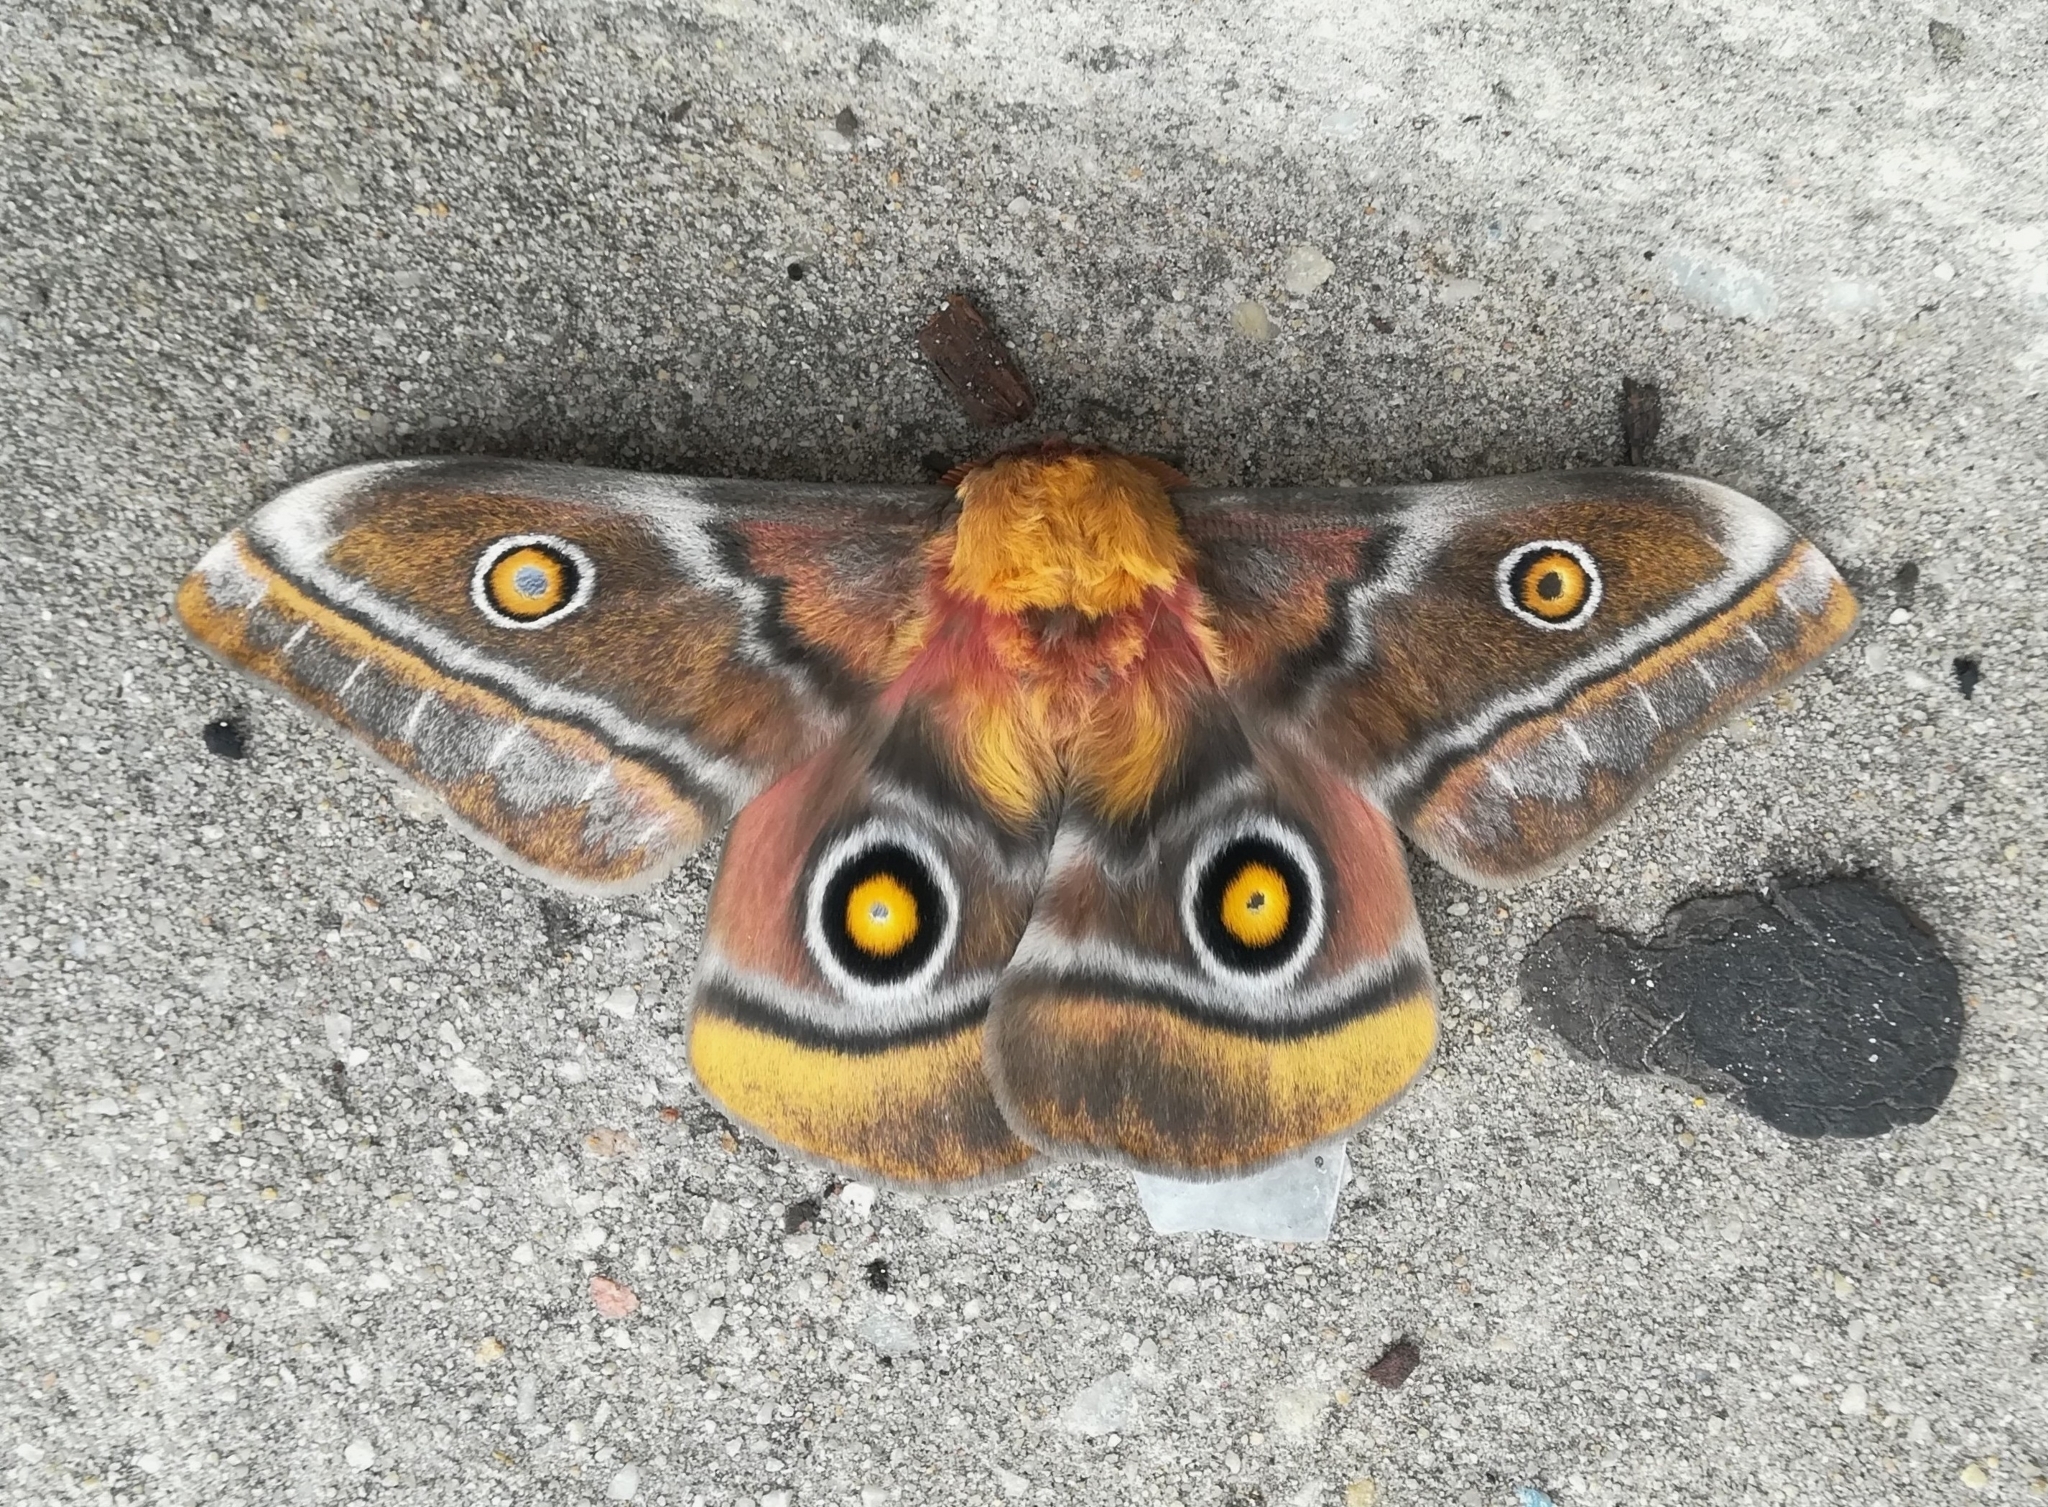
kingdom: Animalia
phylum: Arthropoda
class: Insecta
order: Lepidoptera
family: Saturniidae
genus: Nudaurelia
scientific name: Nudaurelia cytherea
